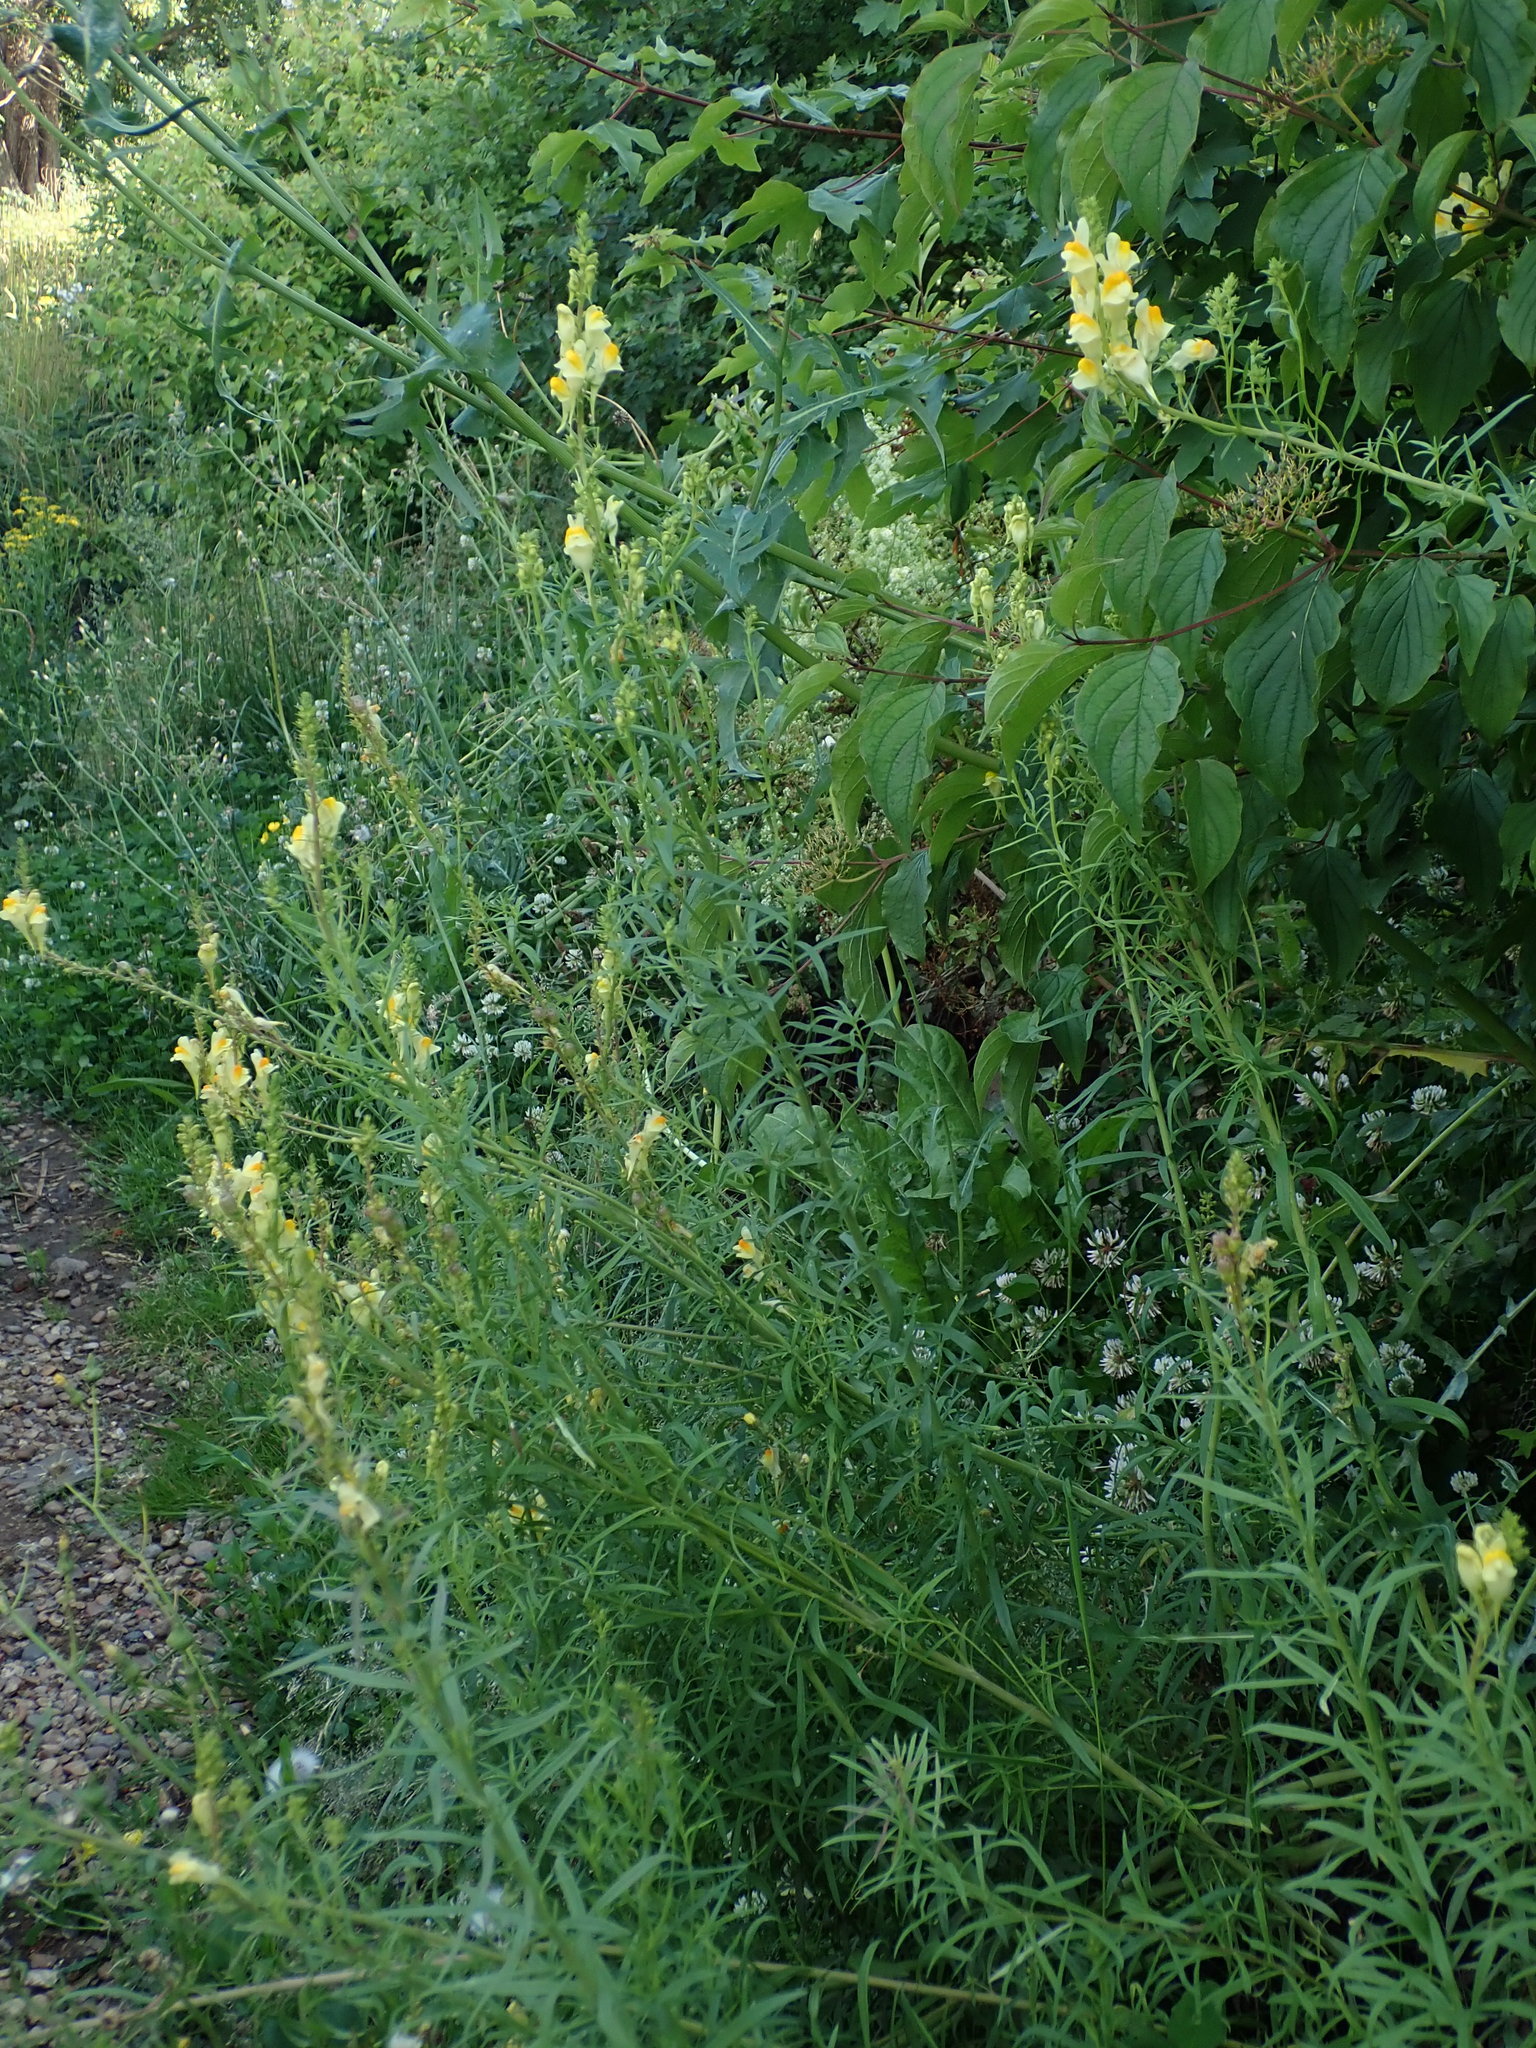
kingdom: Plantae
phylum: Tracheophyta
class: Magnoliopsida
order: Lamiales
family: Plantaginaceae
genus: Linaria
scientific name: Linaria vulgaris
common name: Butter and eggs
